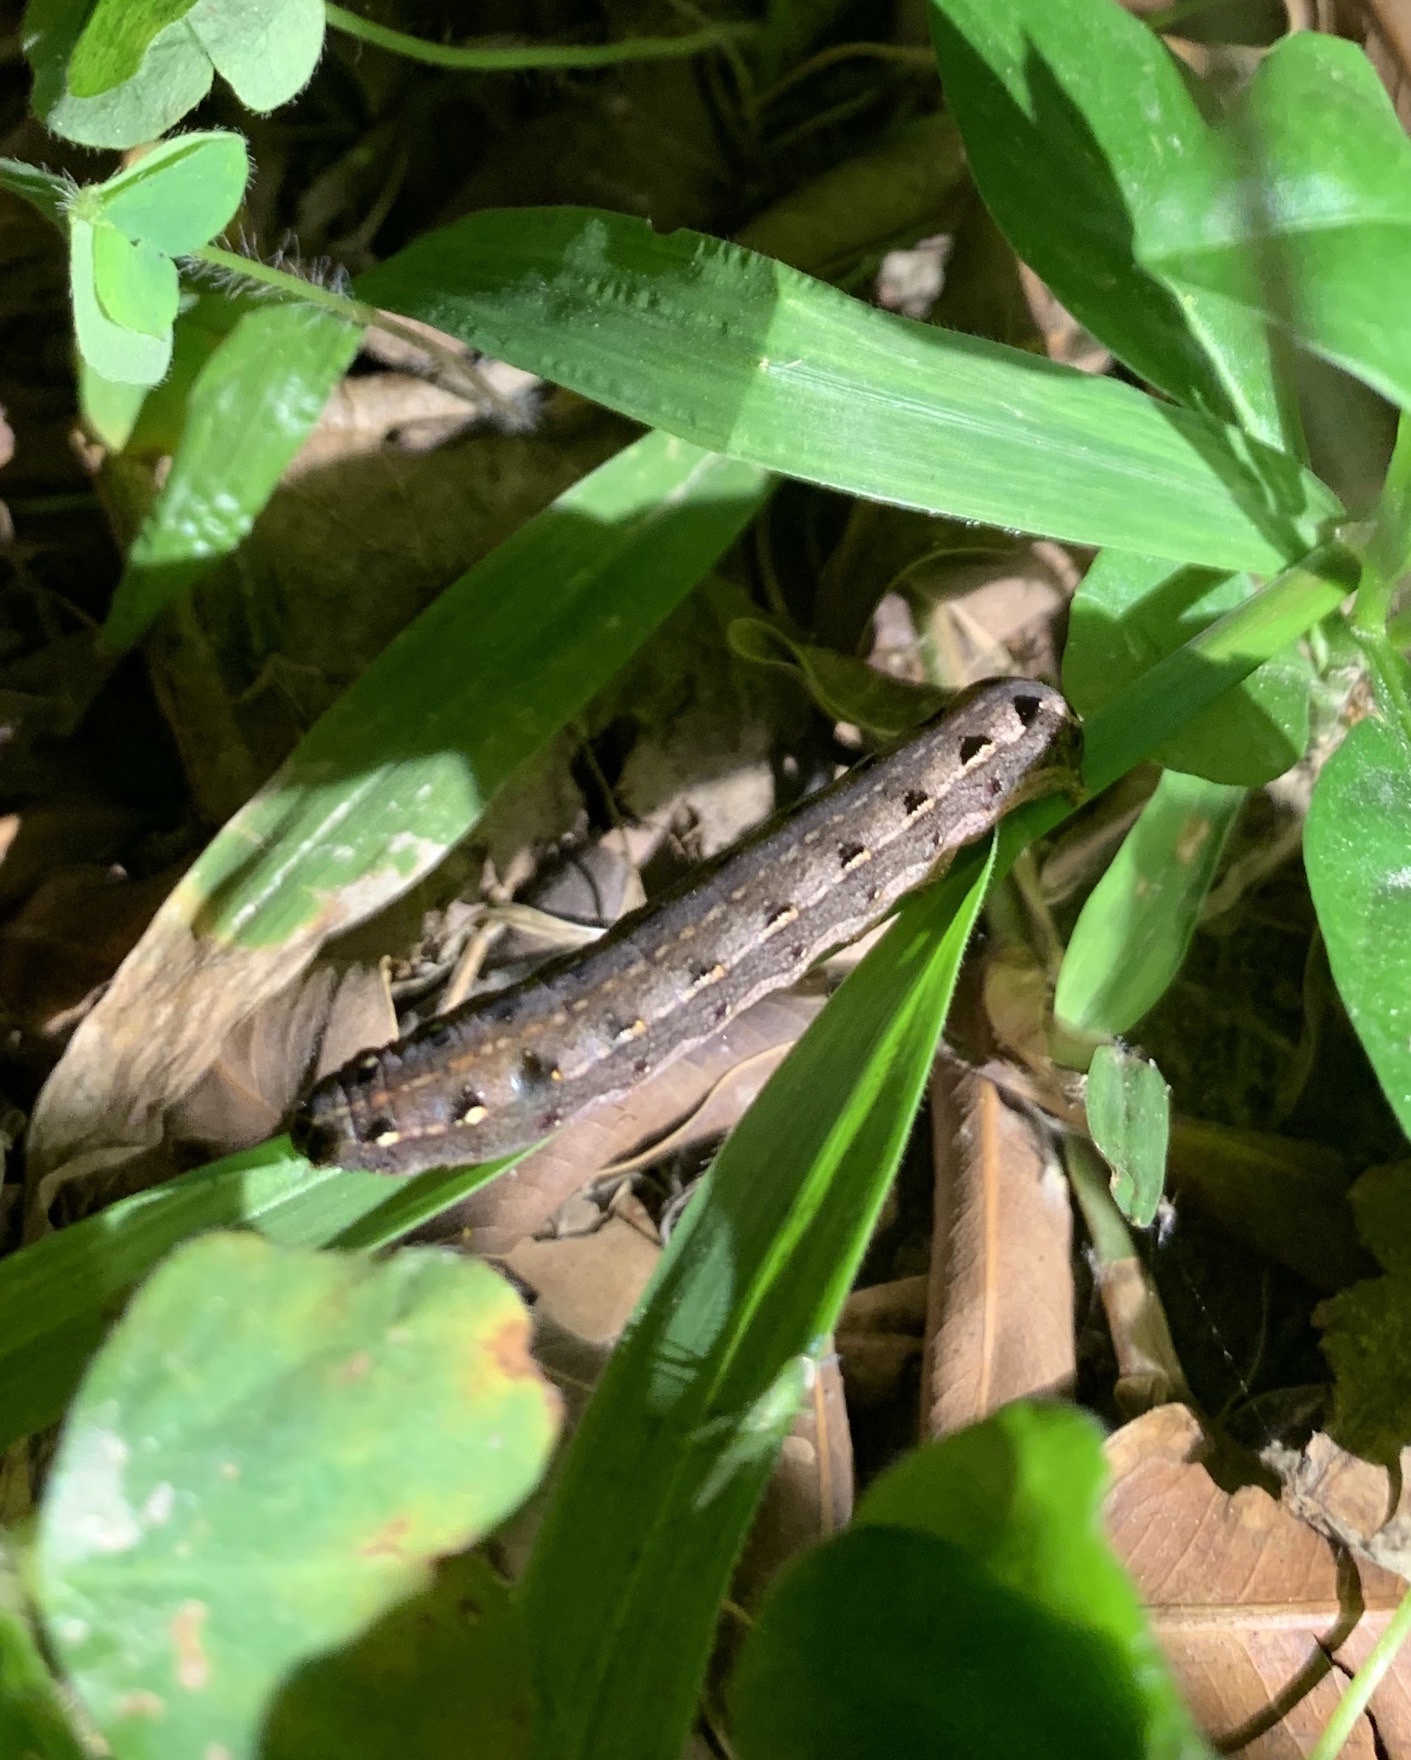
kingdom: Animalia
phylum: Arthropoda
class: Insecta
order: Lepidoptera
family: Noctuidae
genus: Spodoptera
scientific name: Spodoptera litura
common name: Asian cotton leafworm
